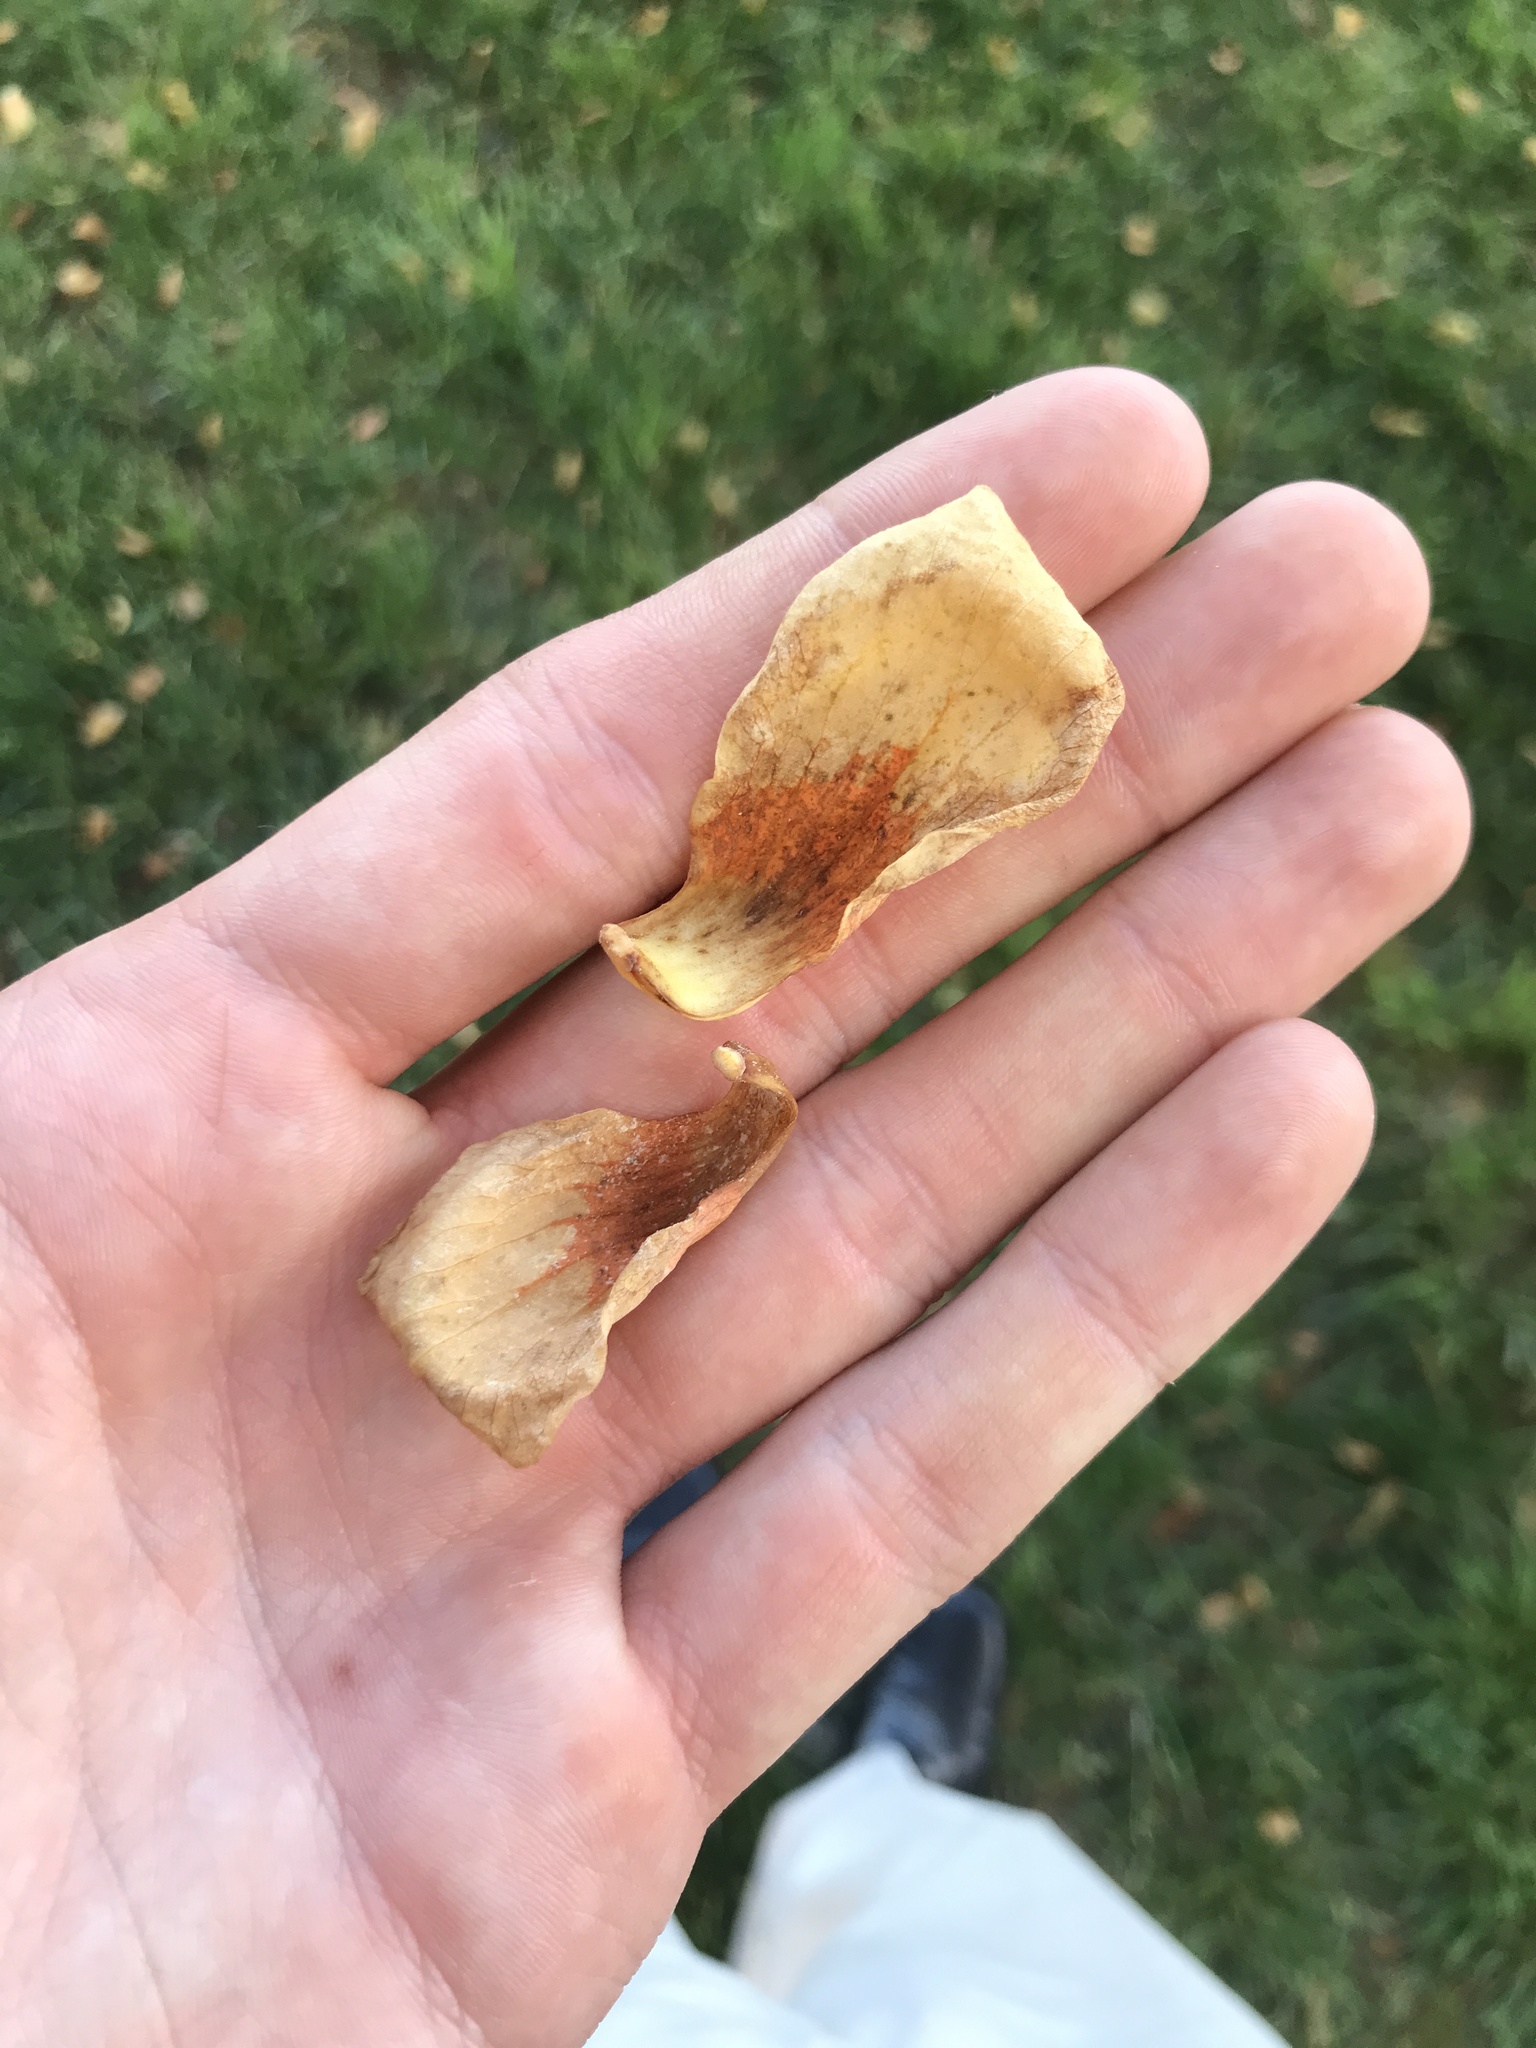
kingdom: Plantae
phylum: Tracheophyta
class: Magnoliopsida
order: Magnoliales
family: Magnoliaceae
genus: Liriodendron
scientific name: Liriodendron tulipifera
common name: Tulip tree
